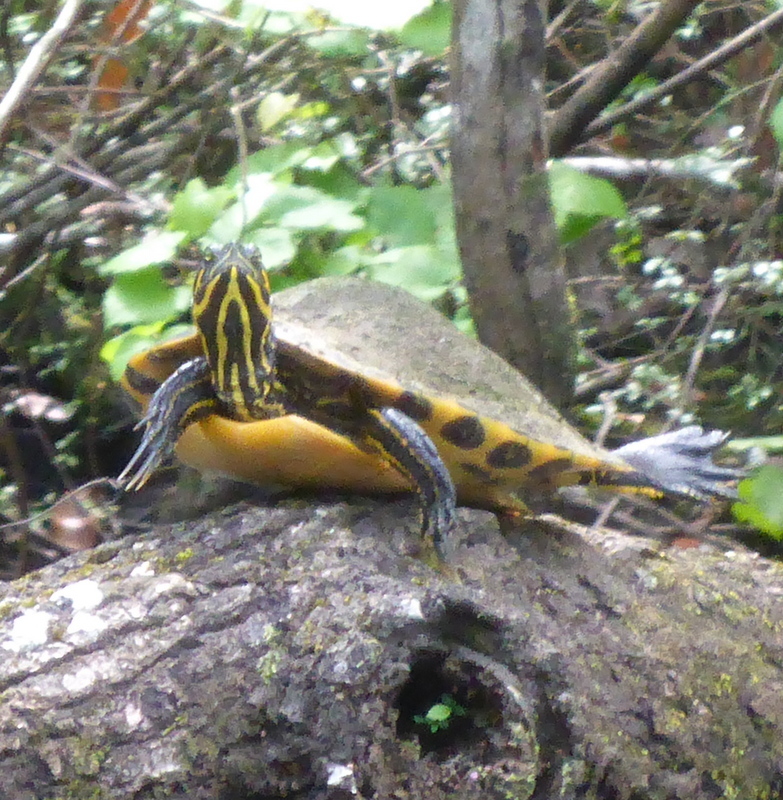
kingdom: Animalia
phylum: Chordata
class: Testudines
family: Emydidae
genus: Pseudemys
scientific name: Pseudemys concinna
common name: Eastern river cooter
